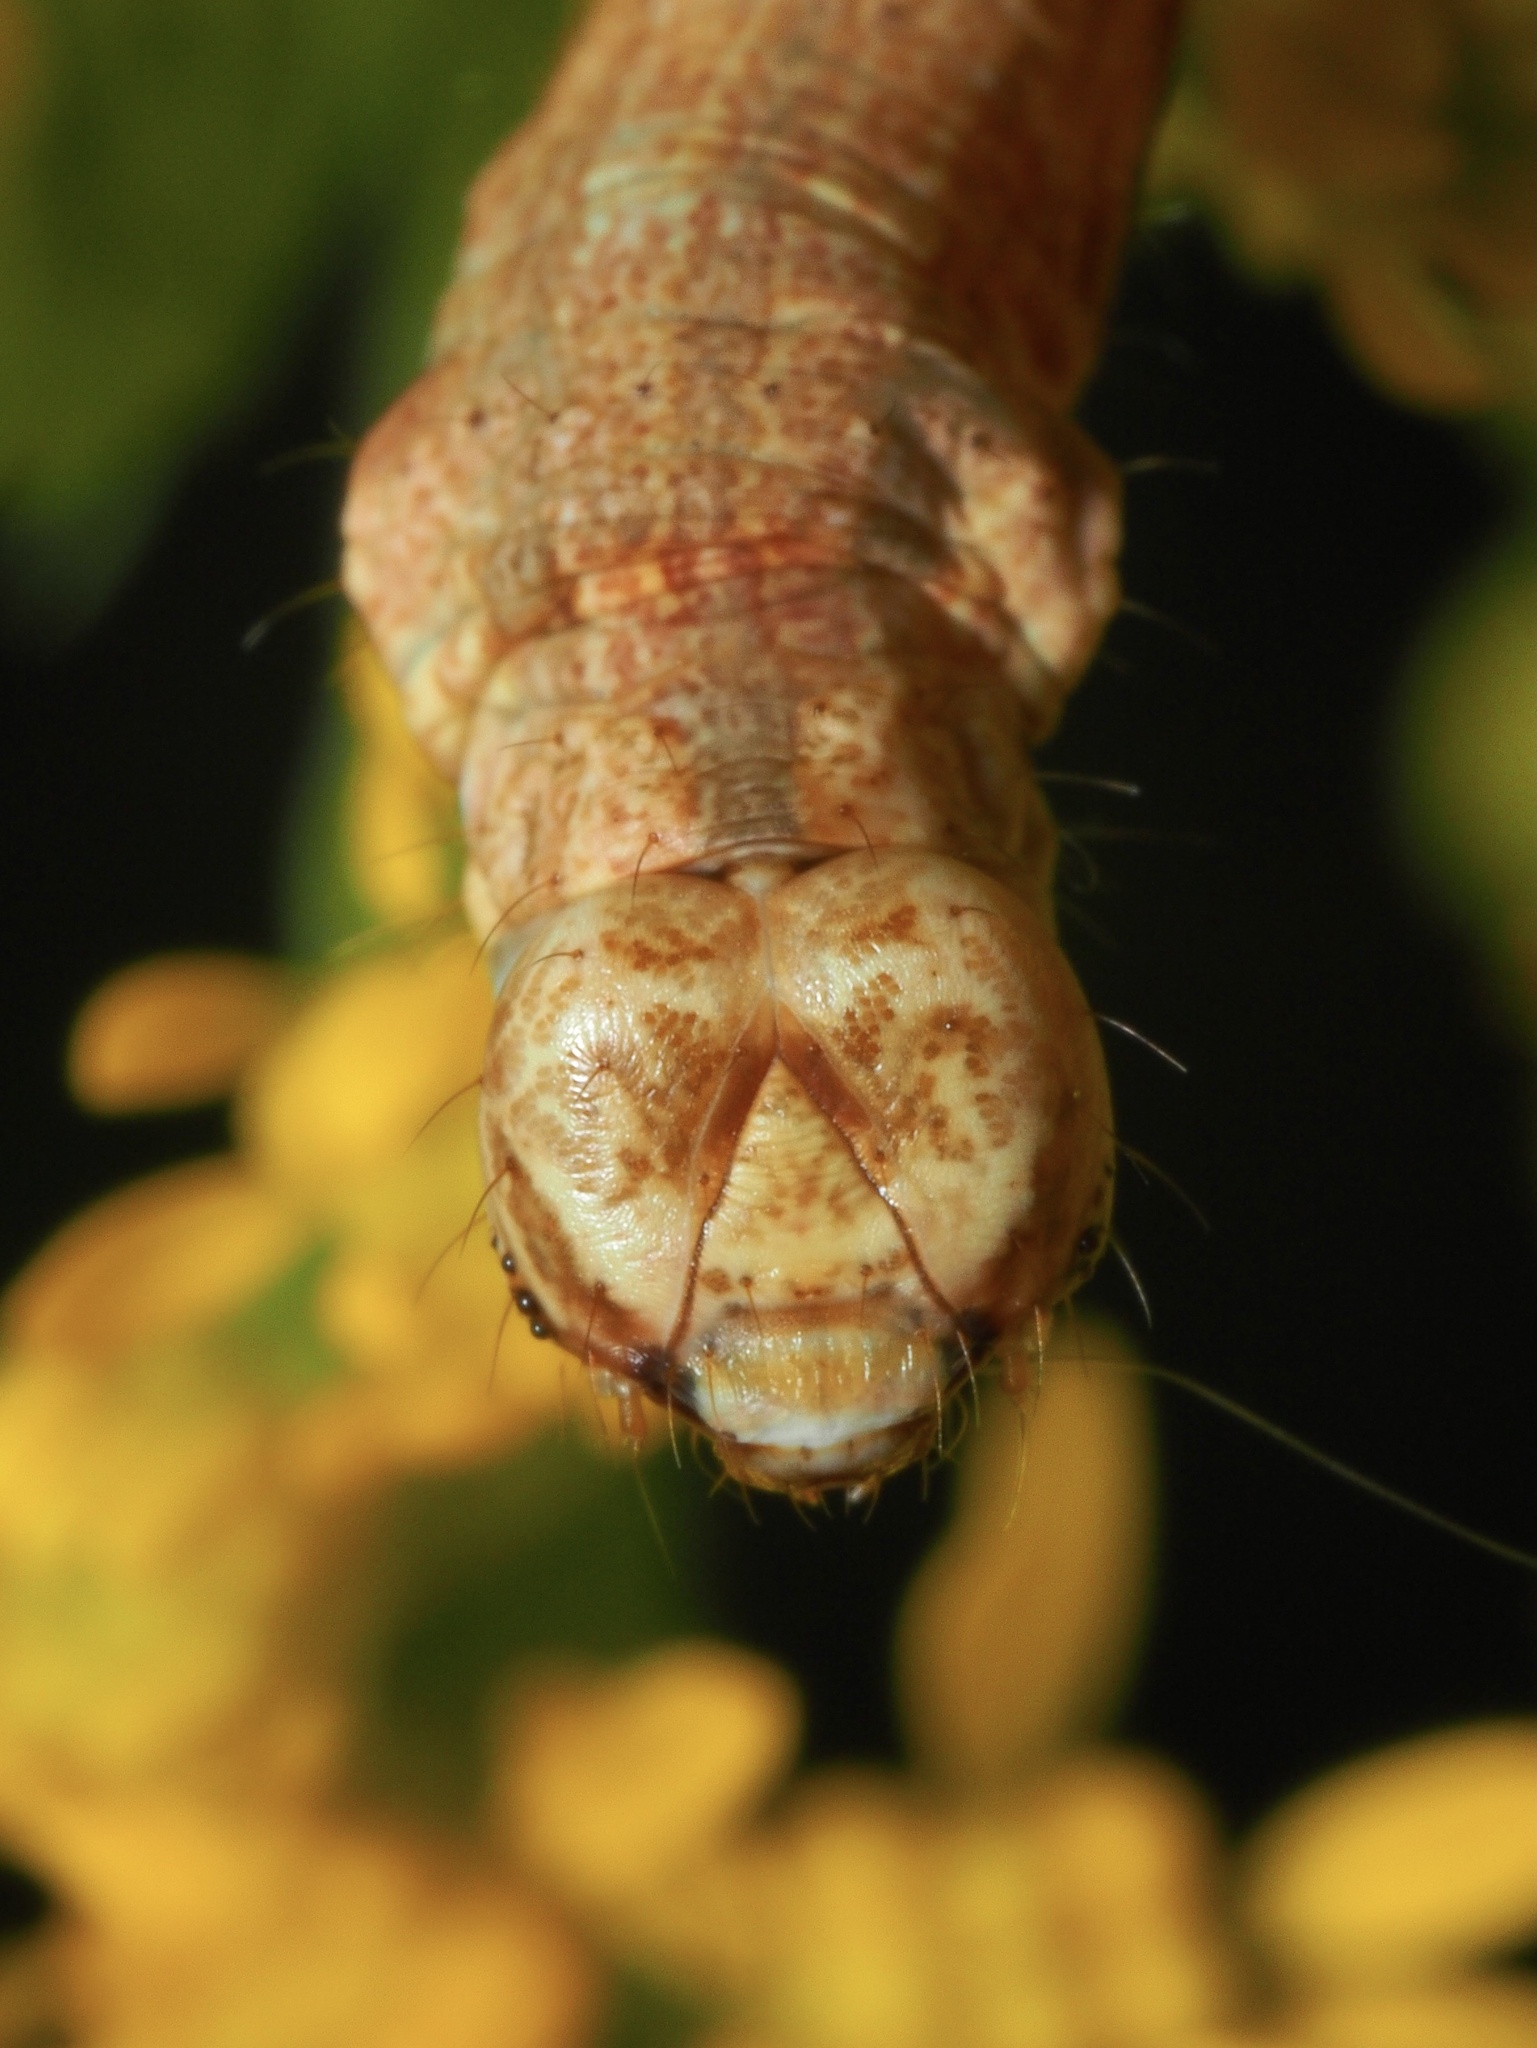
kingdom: Animalia
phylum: Arthropoda
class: Insecta
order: Lepidoptera
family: Geometridae
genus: Ectropis
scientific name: Ectropis crepuscularia
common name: Engrailed
